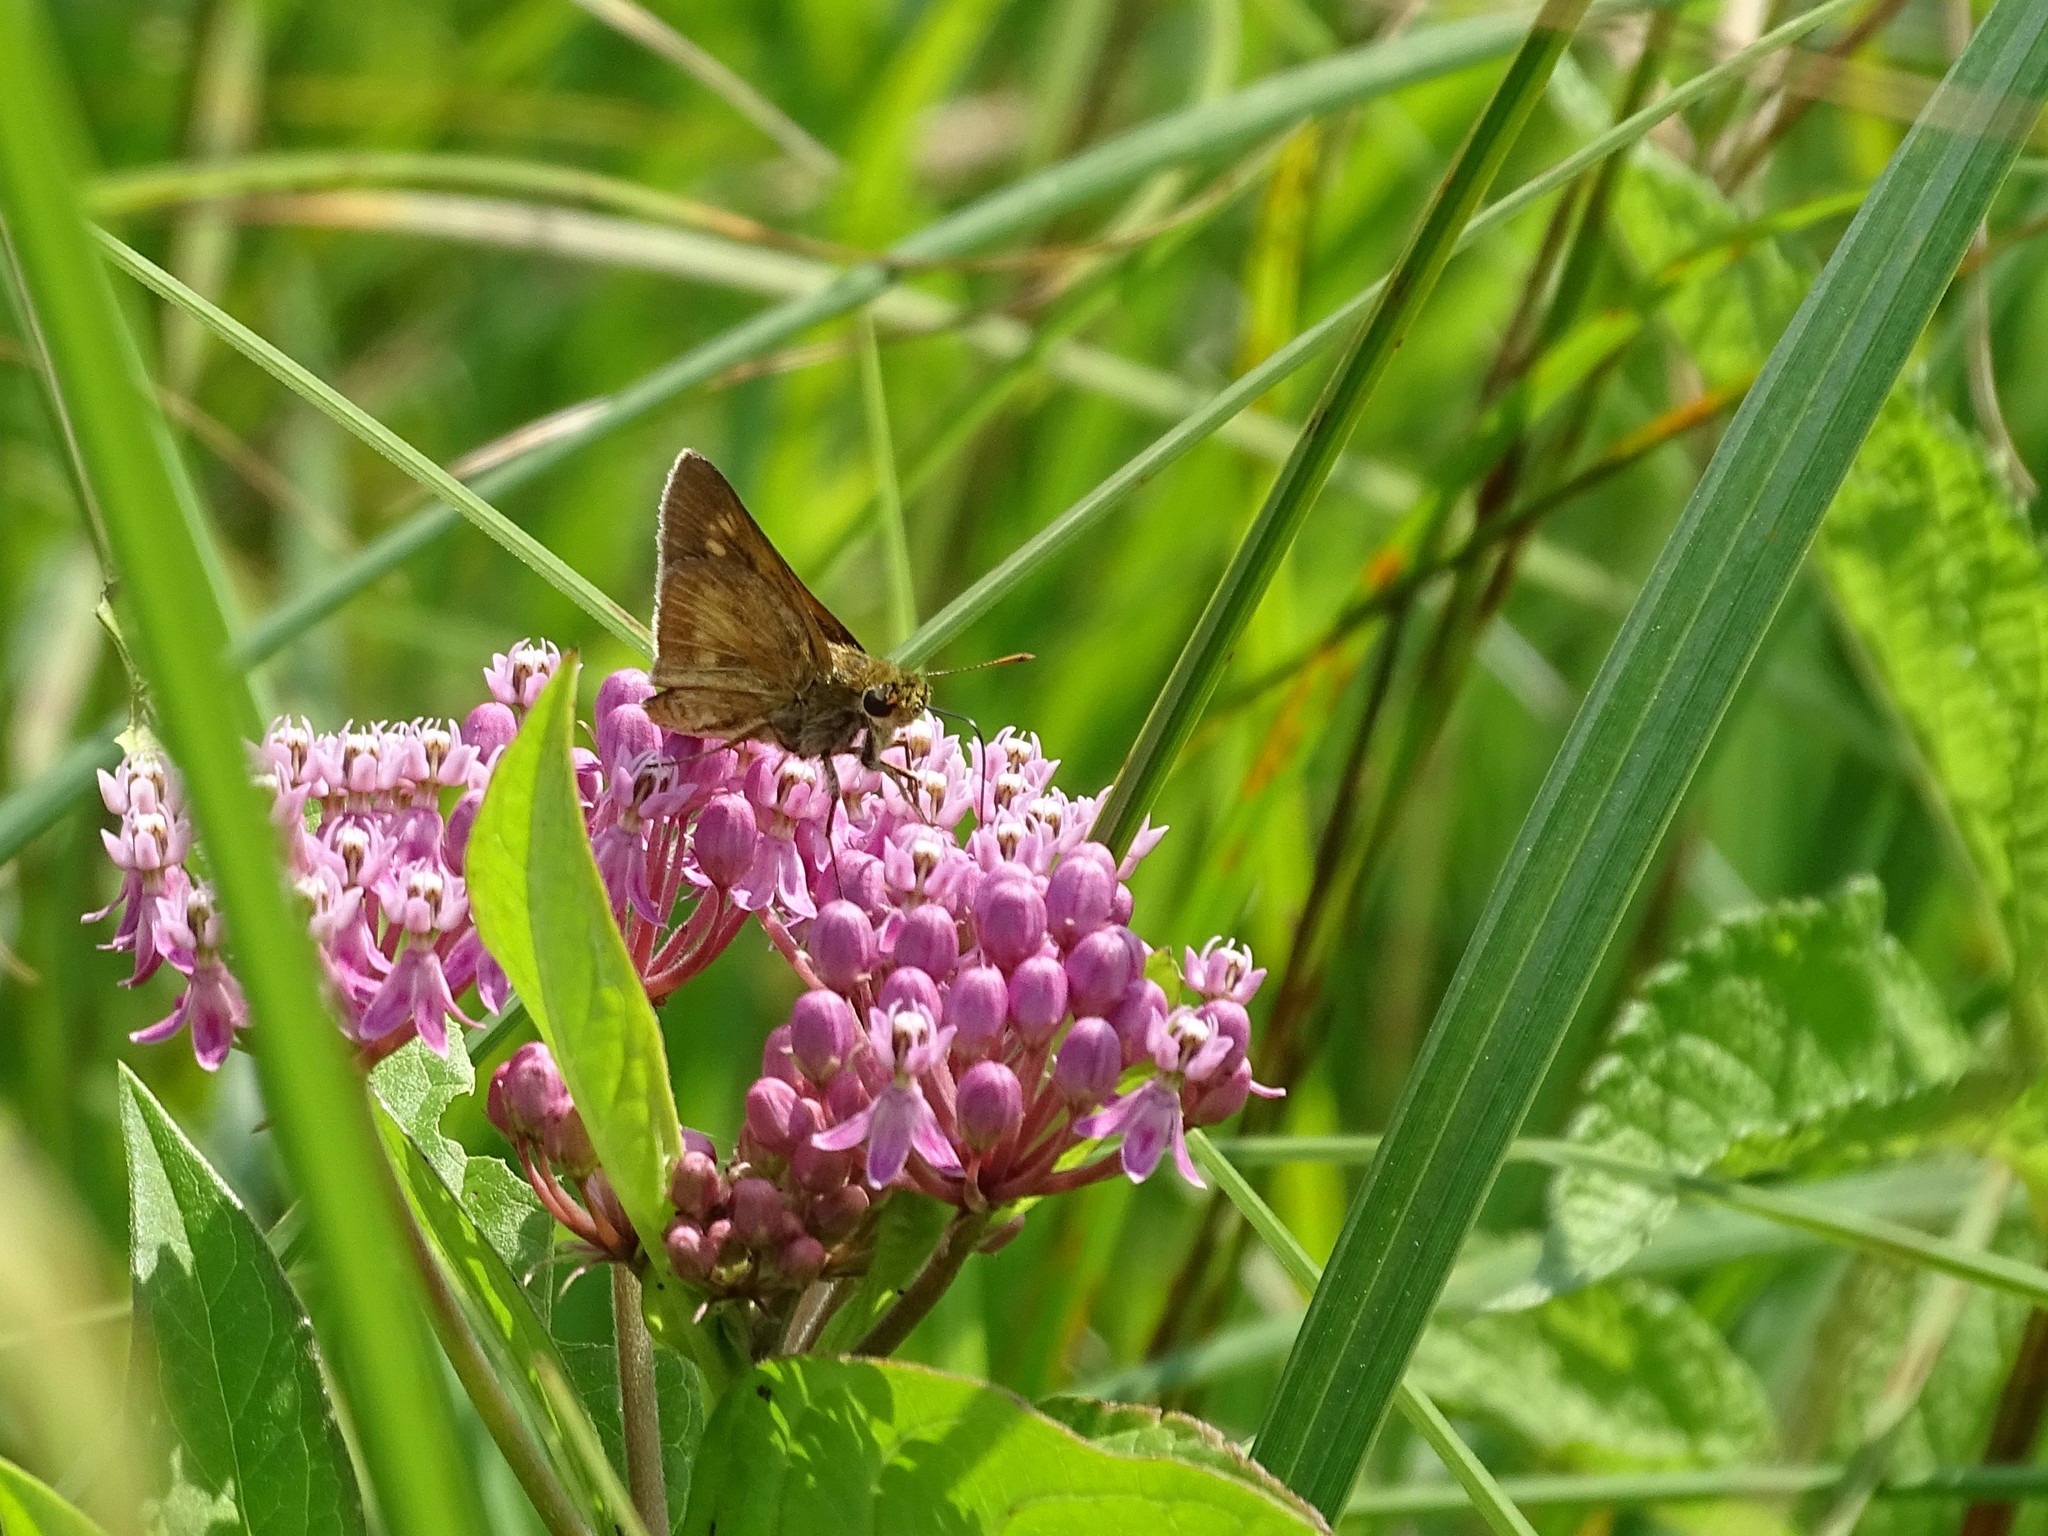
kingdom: Animalia
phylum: Arthropoda
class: Insecta
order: Lepidoptera
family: Hesperiidae
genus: Euphyes
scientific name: Euphyes conspicua
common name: Black dash
